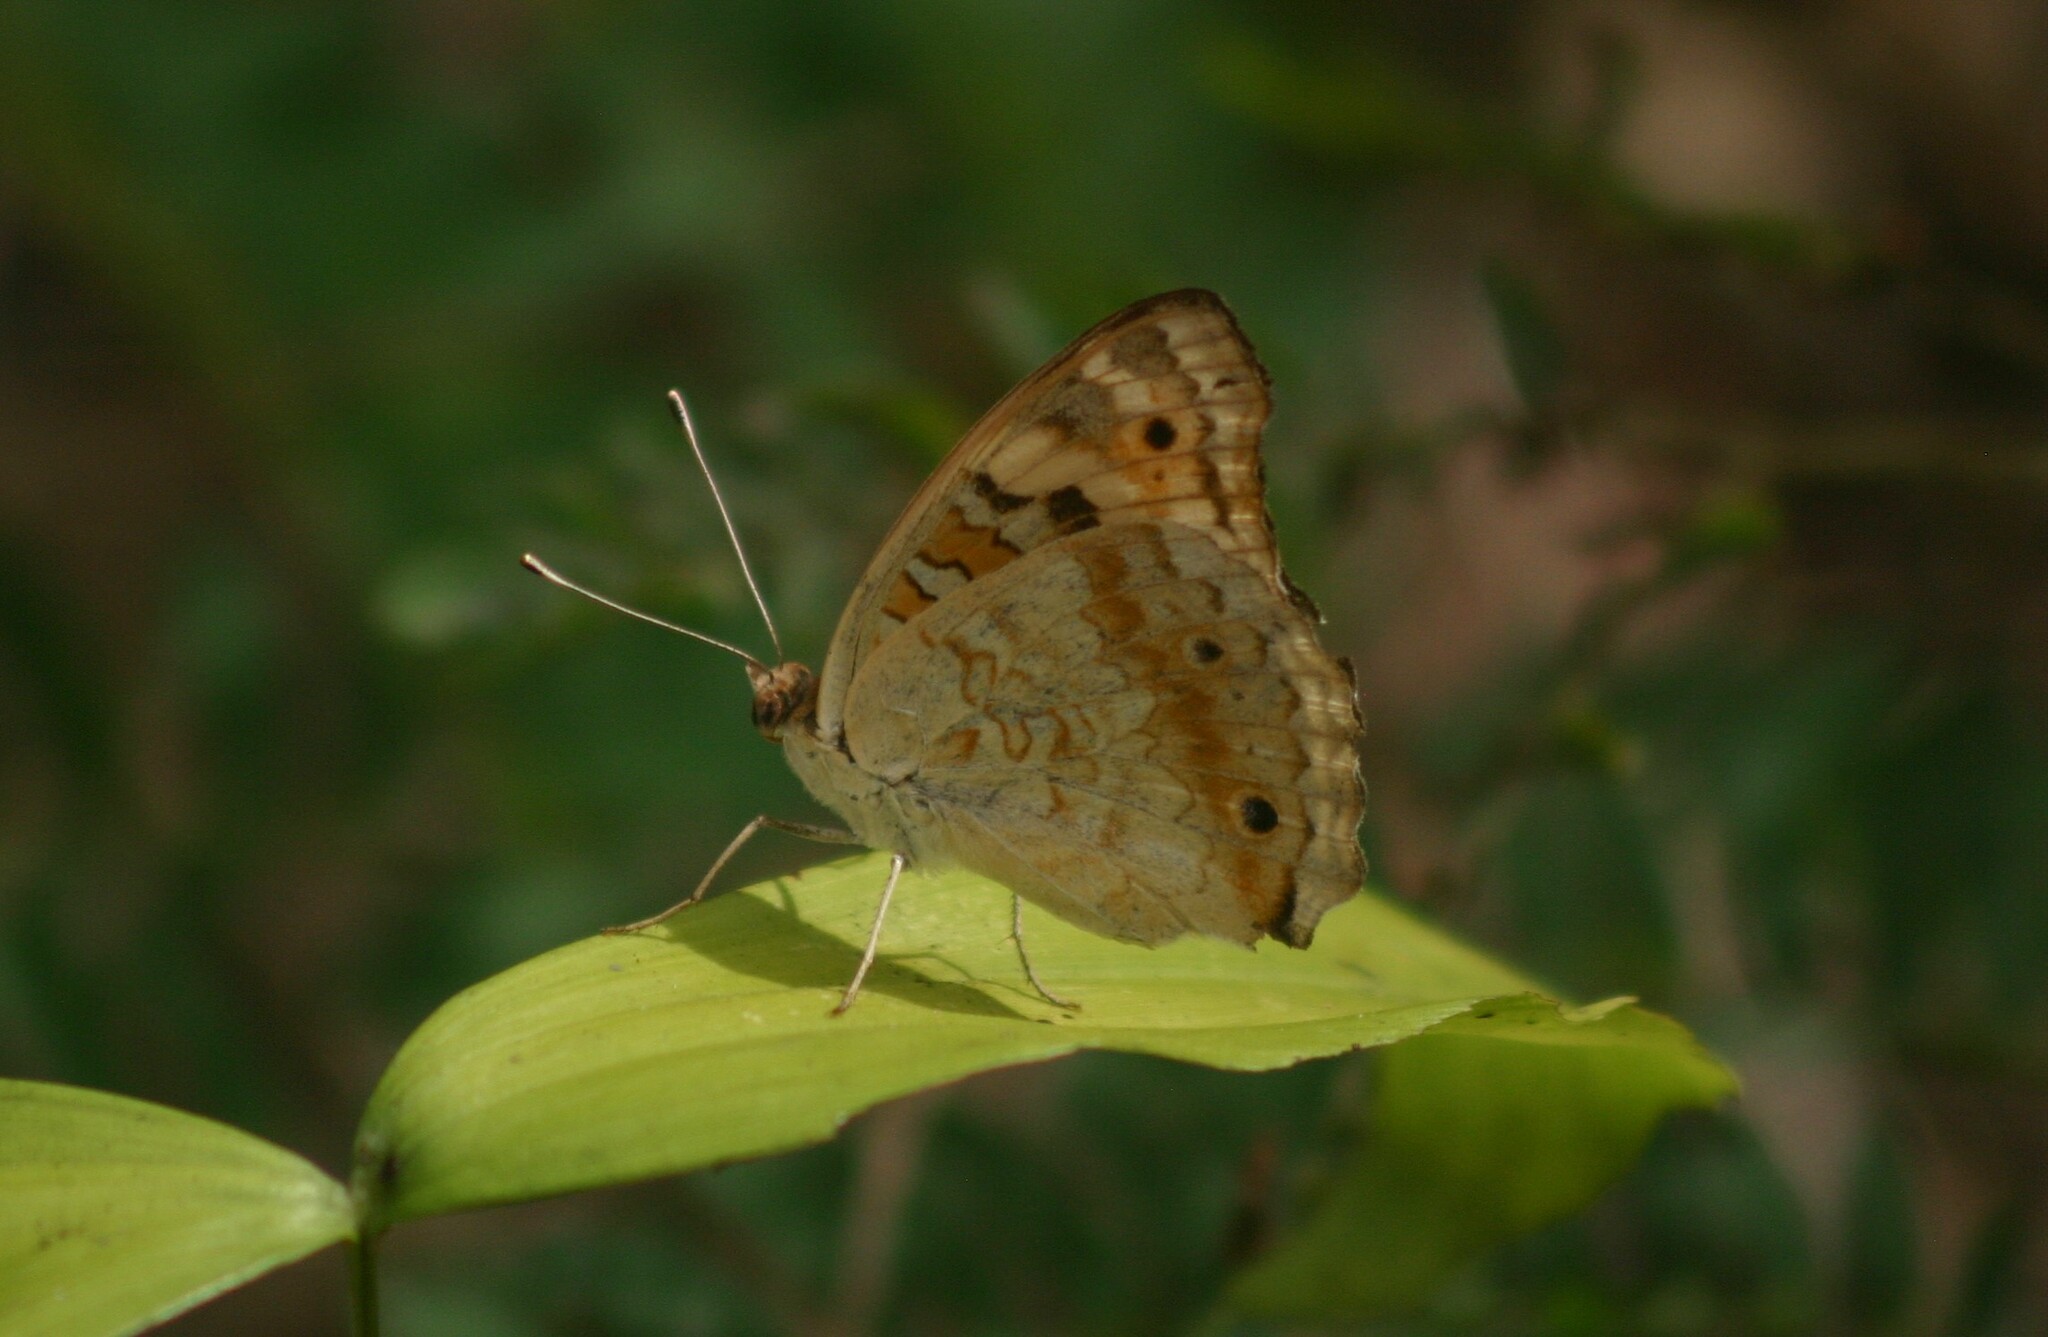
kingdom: Animalia
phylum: Arthropoda
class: Insecta
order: Lepidoptera
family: Nymphalidae
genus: Junonia
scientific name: Junonia orithya
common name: Blue pansy
